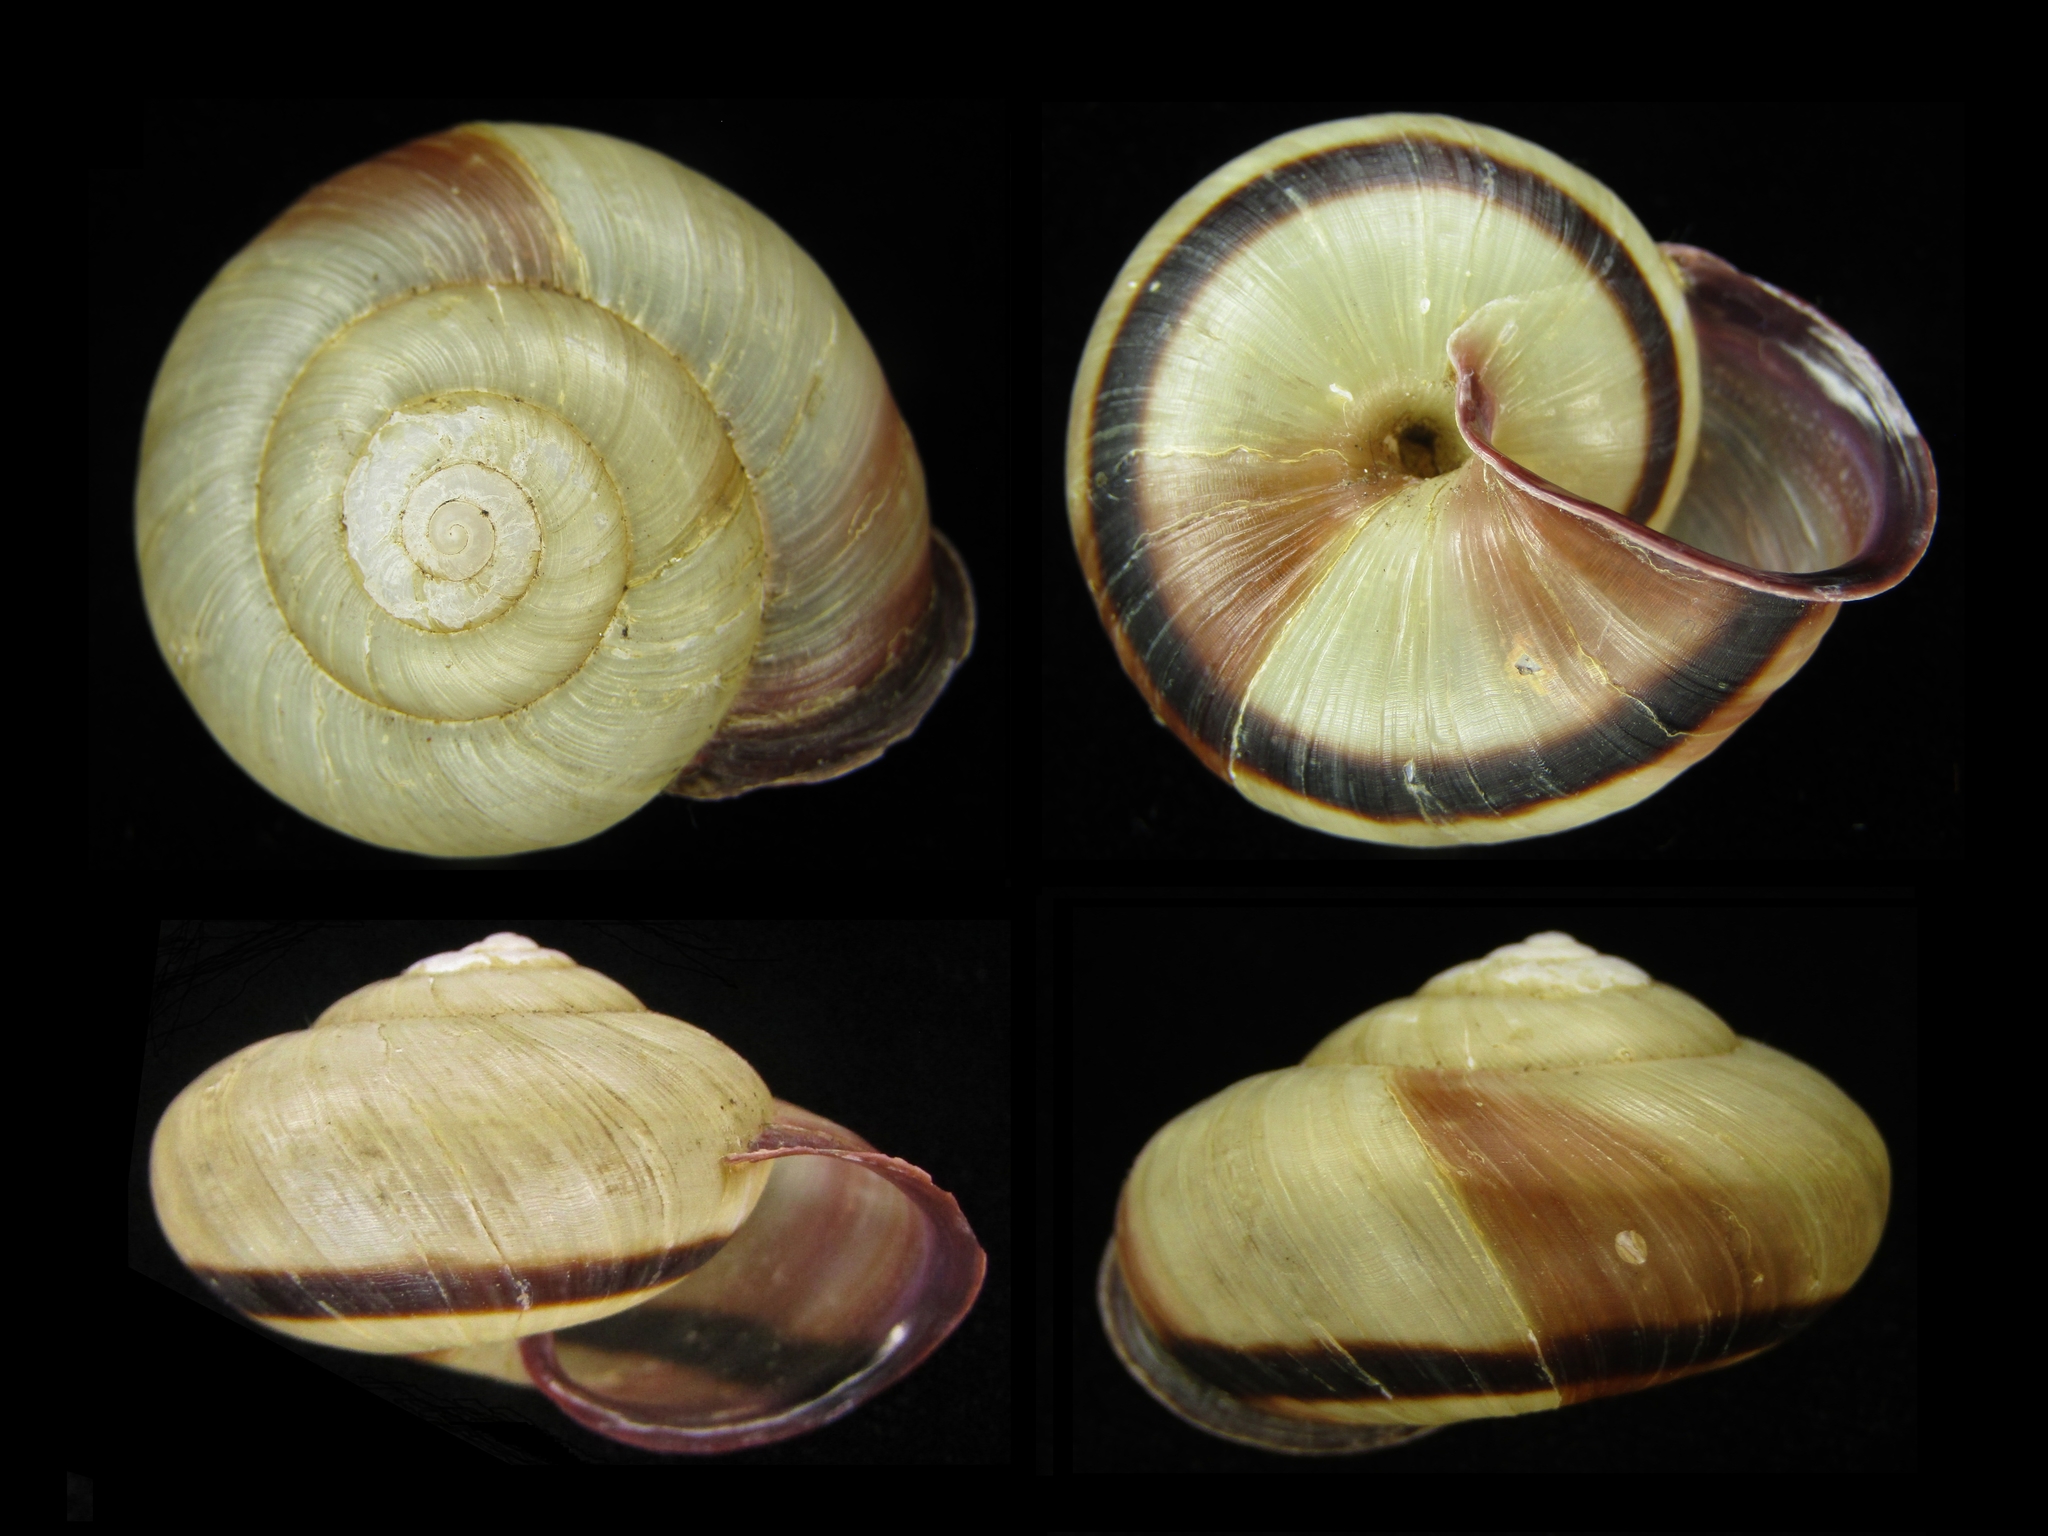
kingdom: Animalia
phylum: Mollusca
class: Gastropoda
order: Stylommatophora
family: Camaenidae
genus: Euhadra
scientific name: Euhadra amaliae
